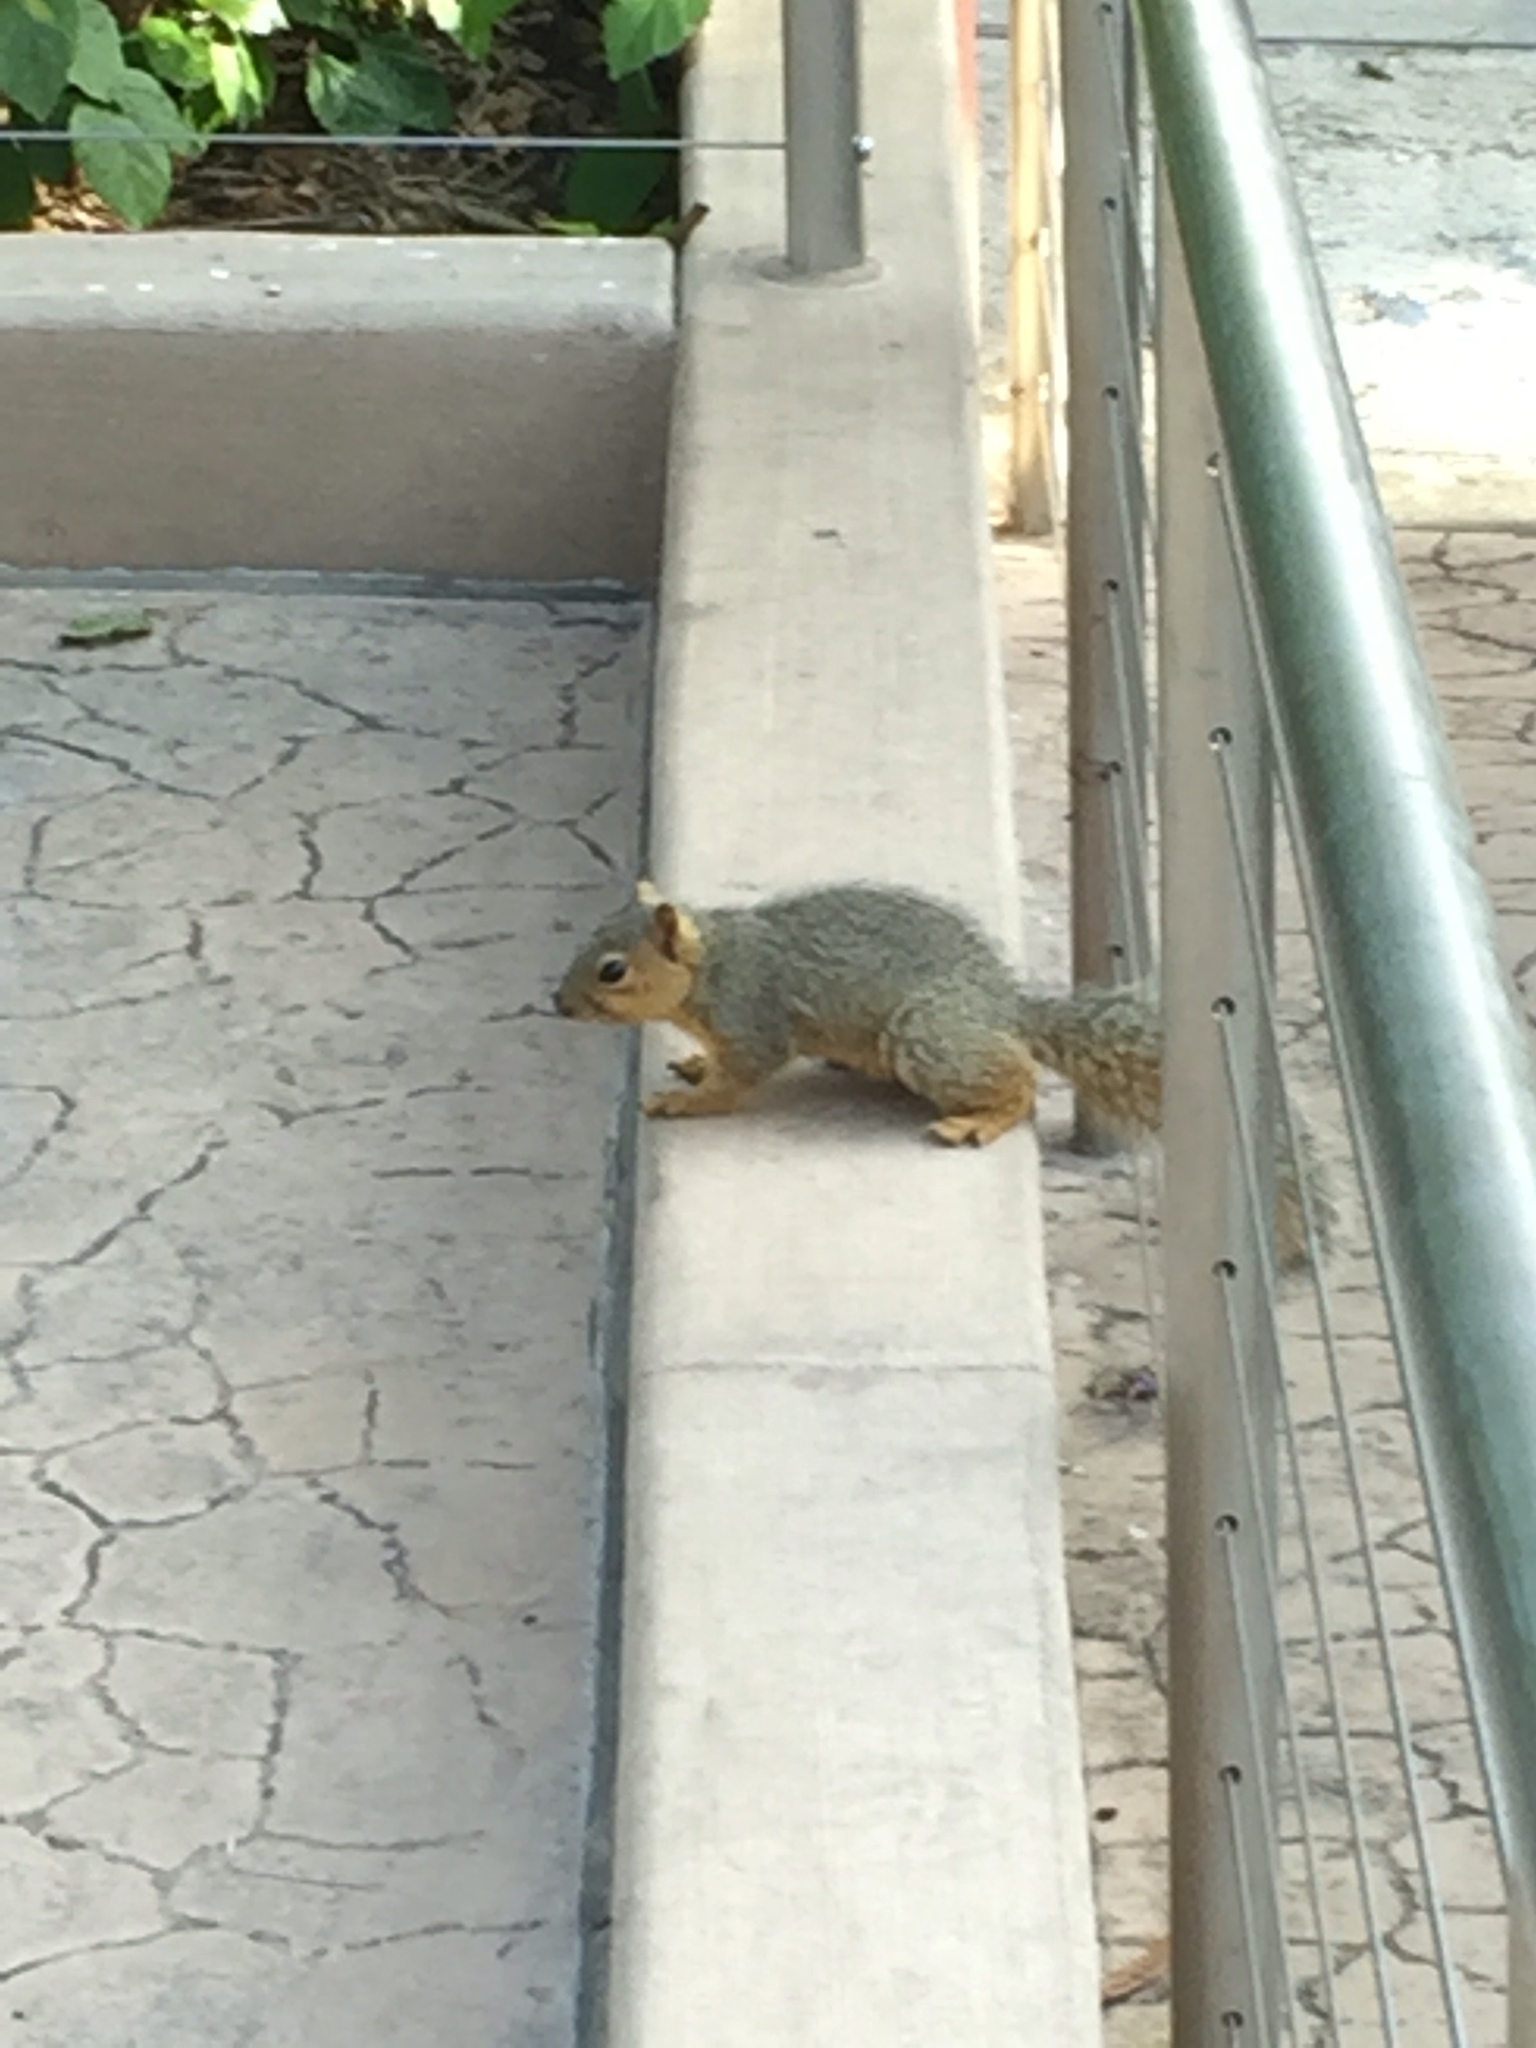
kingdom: Animalia
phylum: Chordata
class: Mammalia
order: Rodentia
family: Sciuridae
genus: Sciurus
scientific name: Sciurus niger
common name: Fox squirrel
